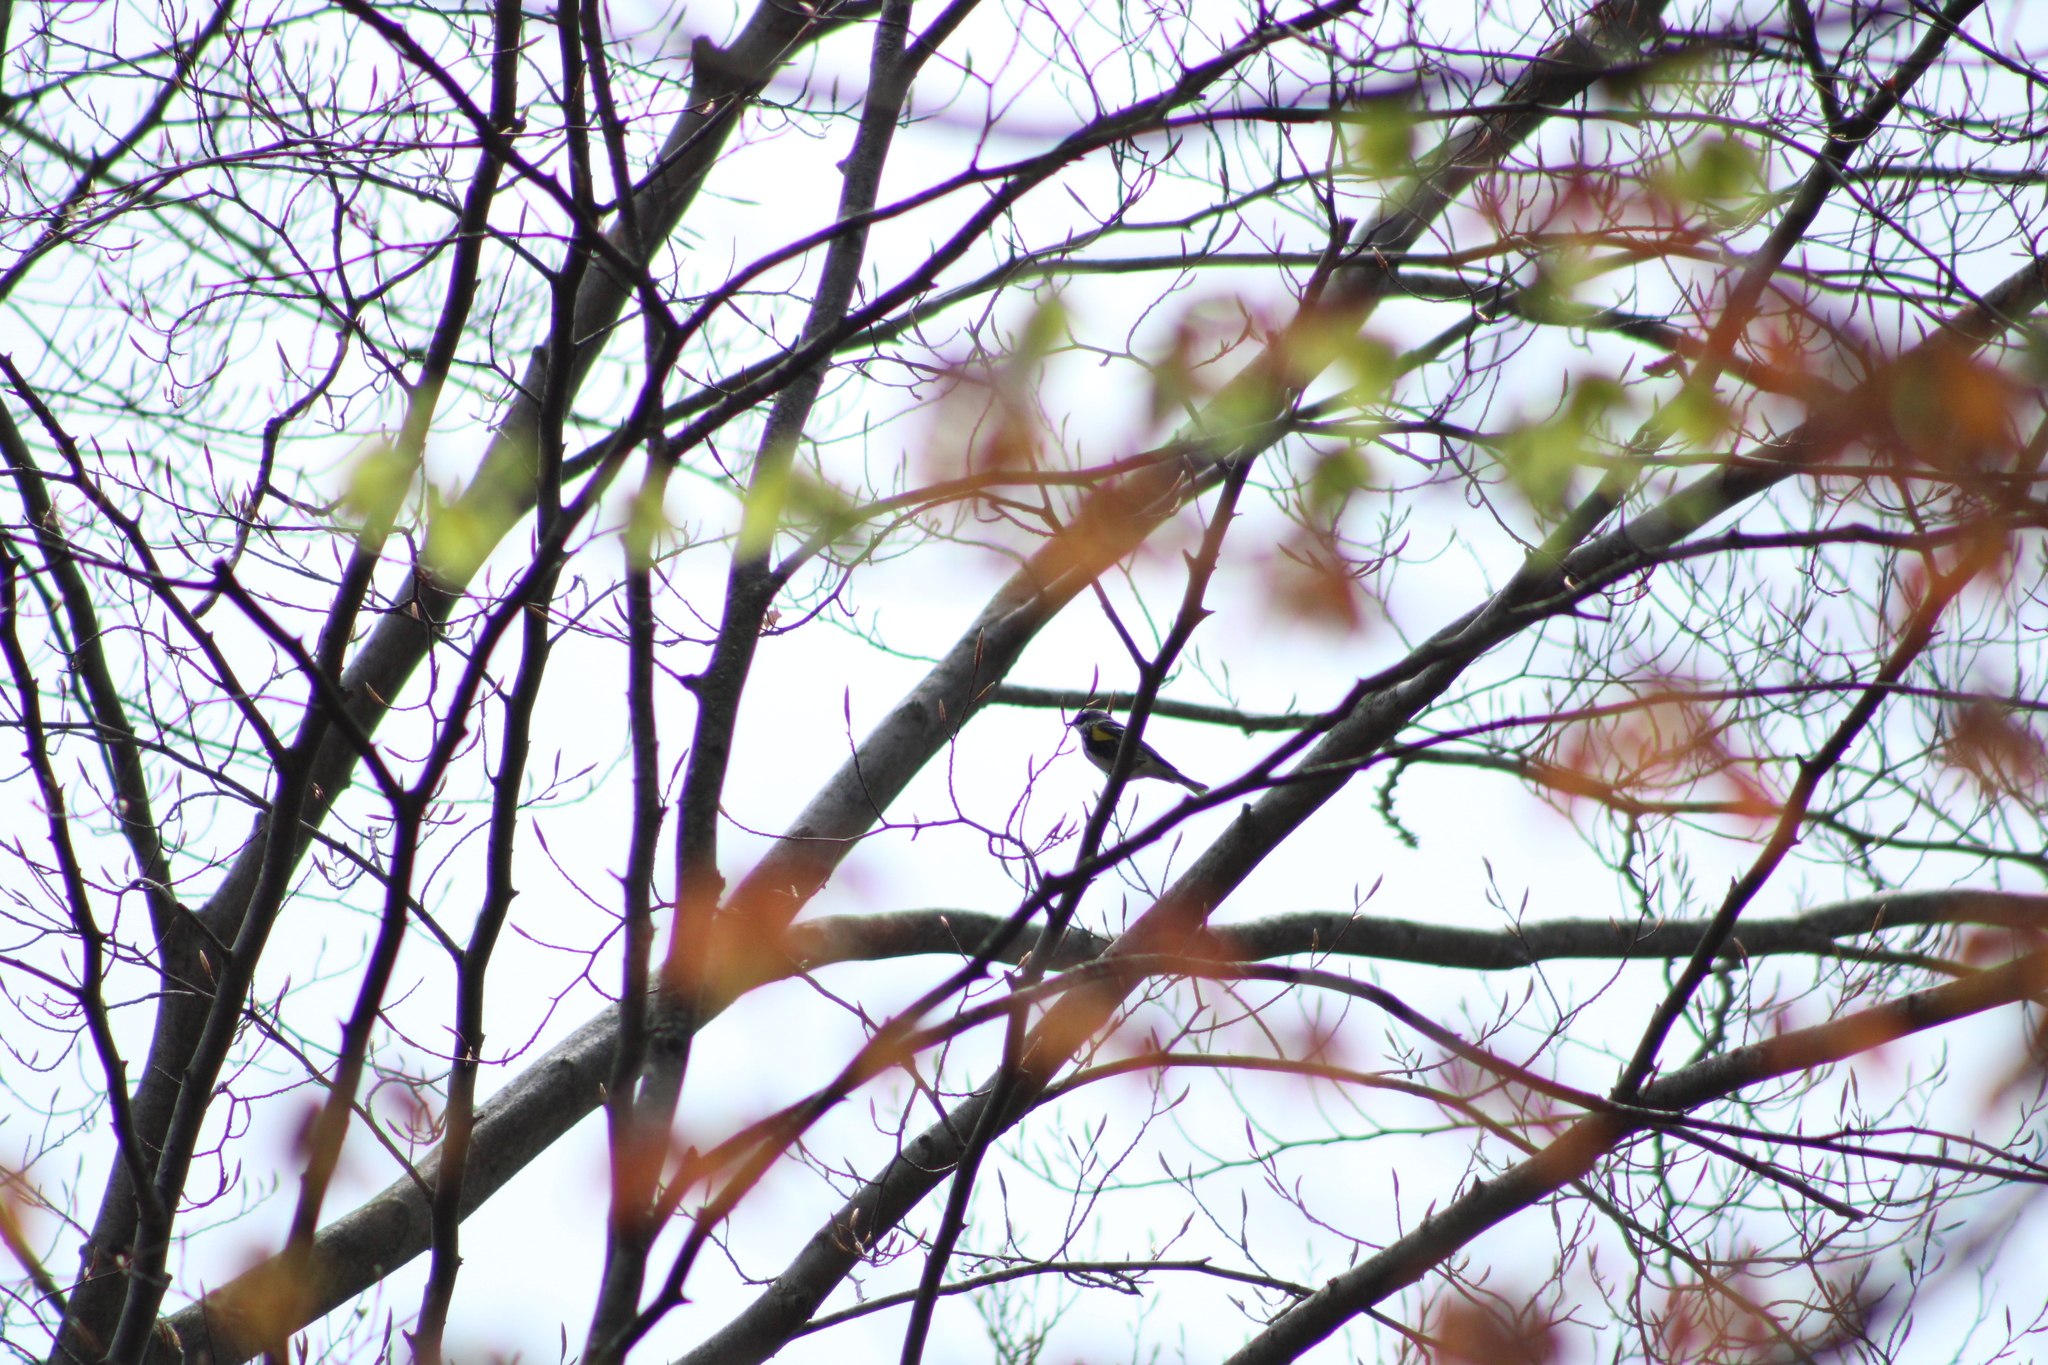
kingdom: Animalia
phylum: Chordata
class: Aves
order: Passeriformes
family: Parulidae
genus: Setophaga
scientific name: Setophaga coronata
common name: Myrtle warbler
